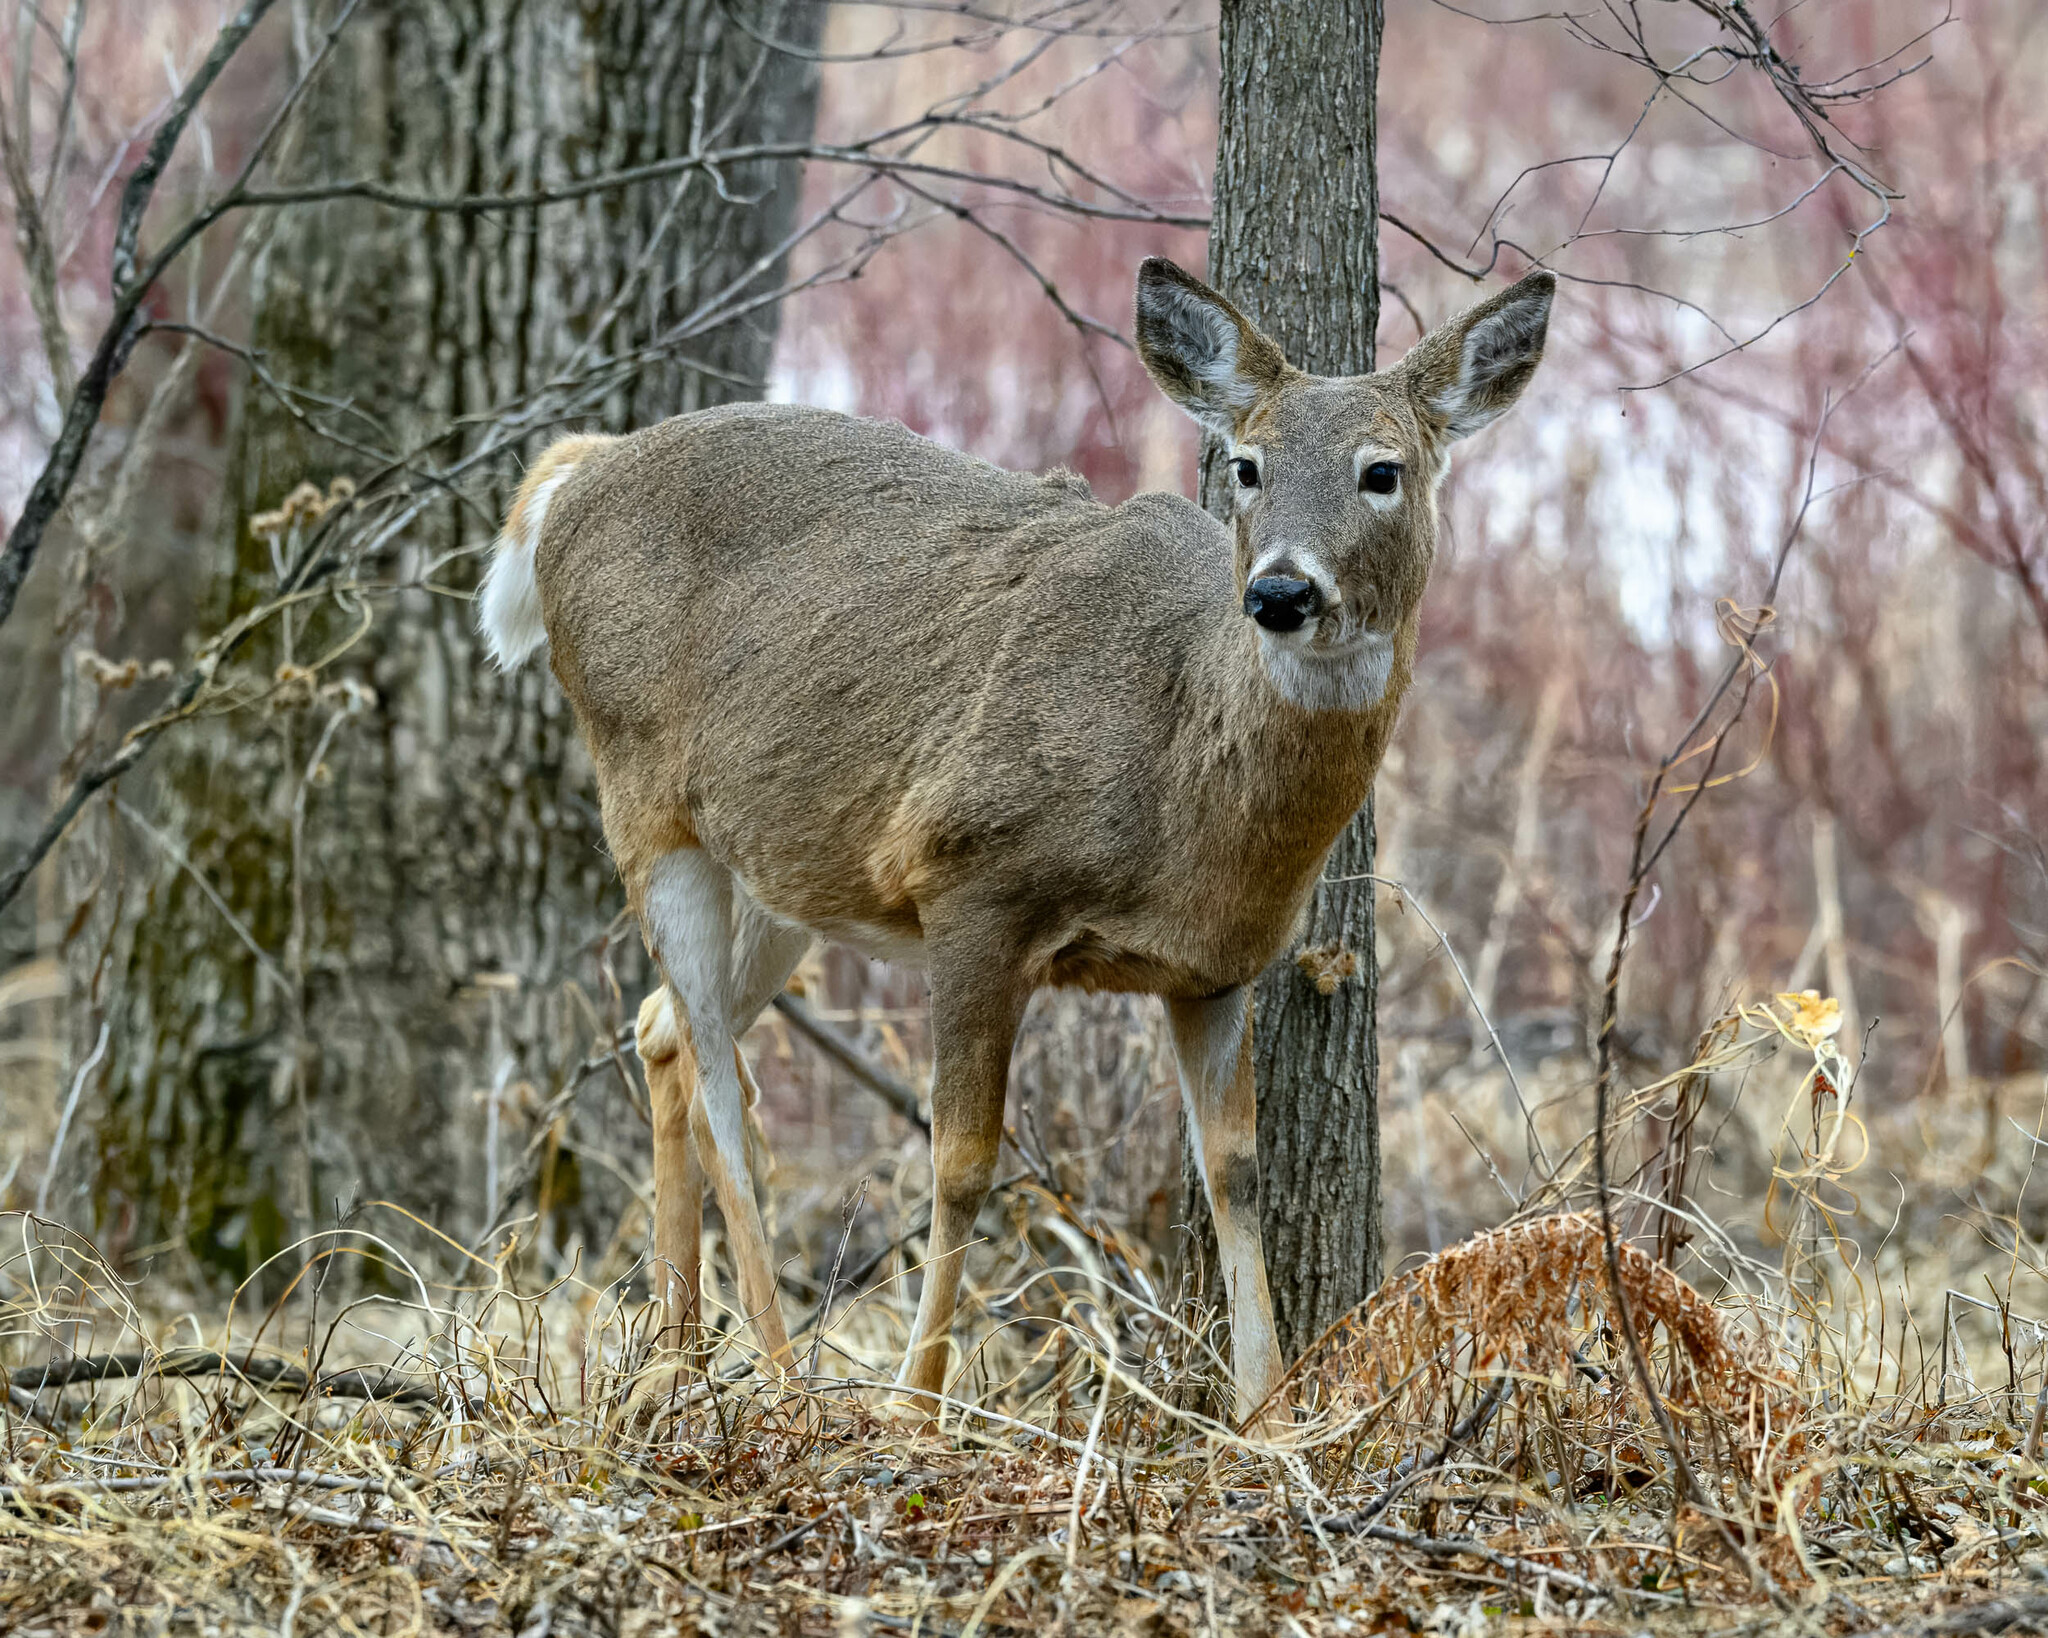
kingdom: Animalia
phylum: Chordata
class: Mammalia
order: Artiodactyla
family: Cervidae
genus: Odocoileus
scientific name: Odocoileus virginianus
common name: White-tailed deer
